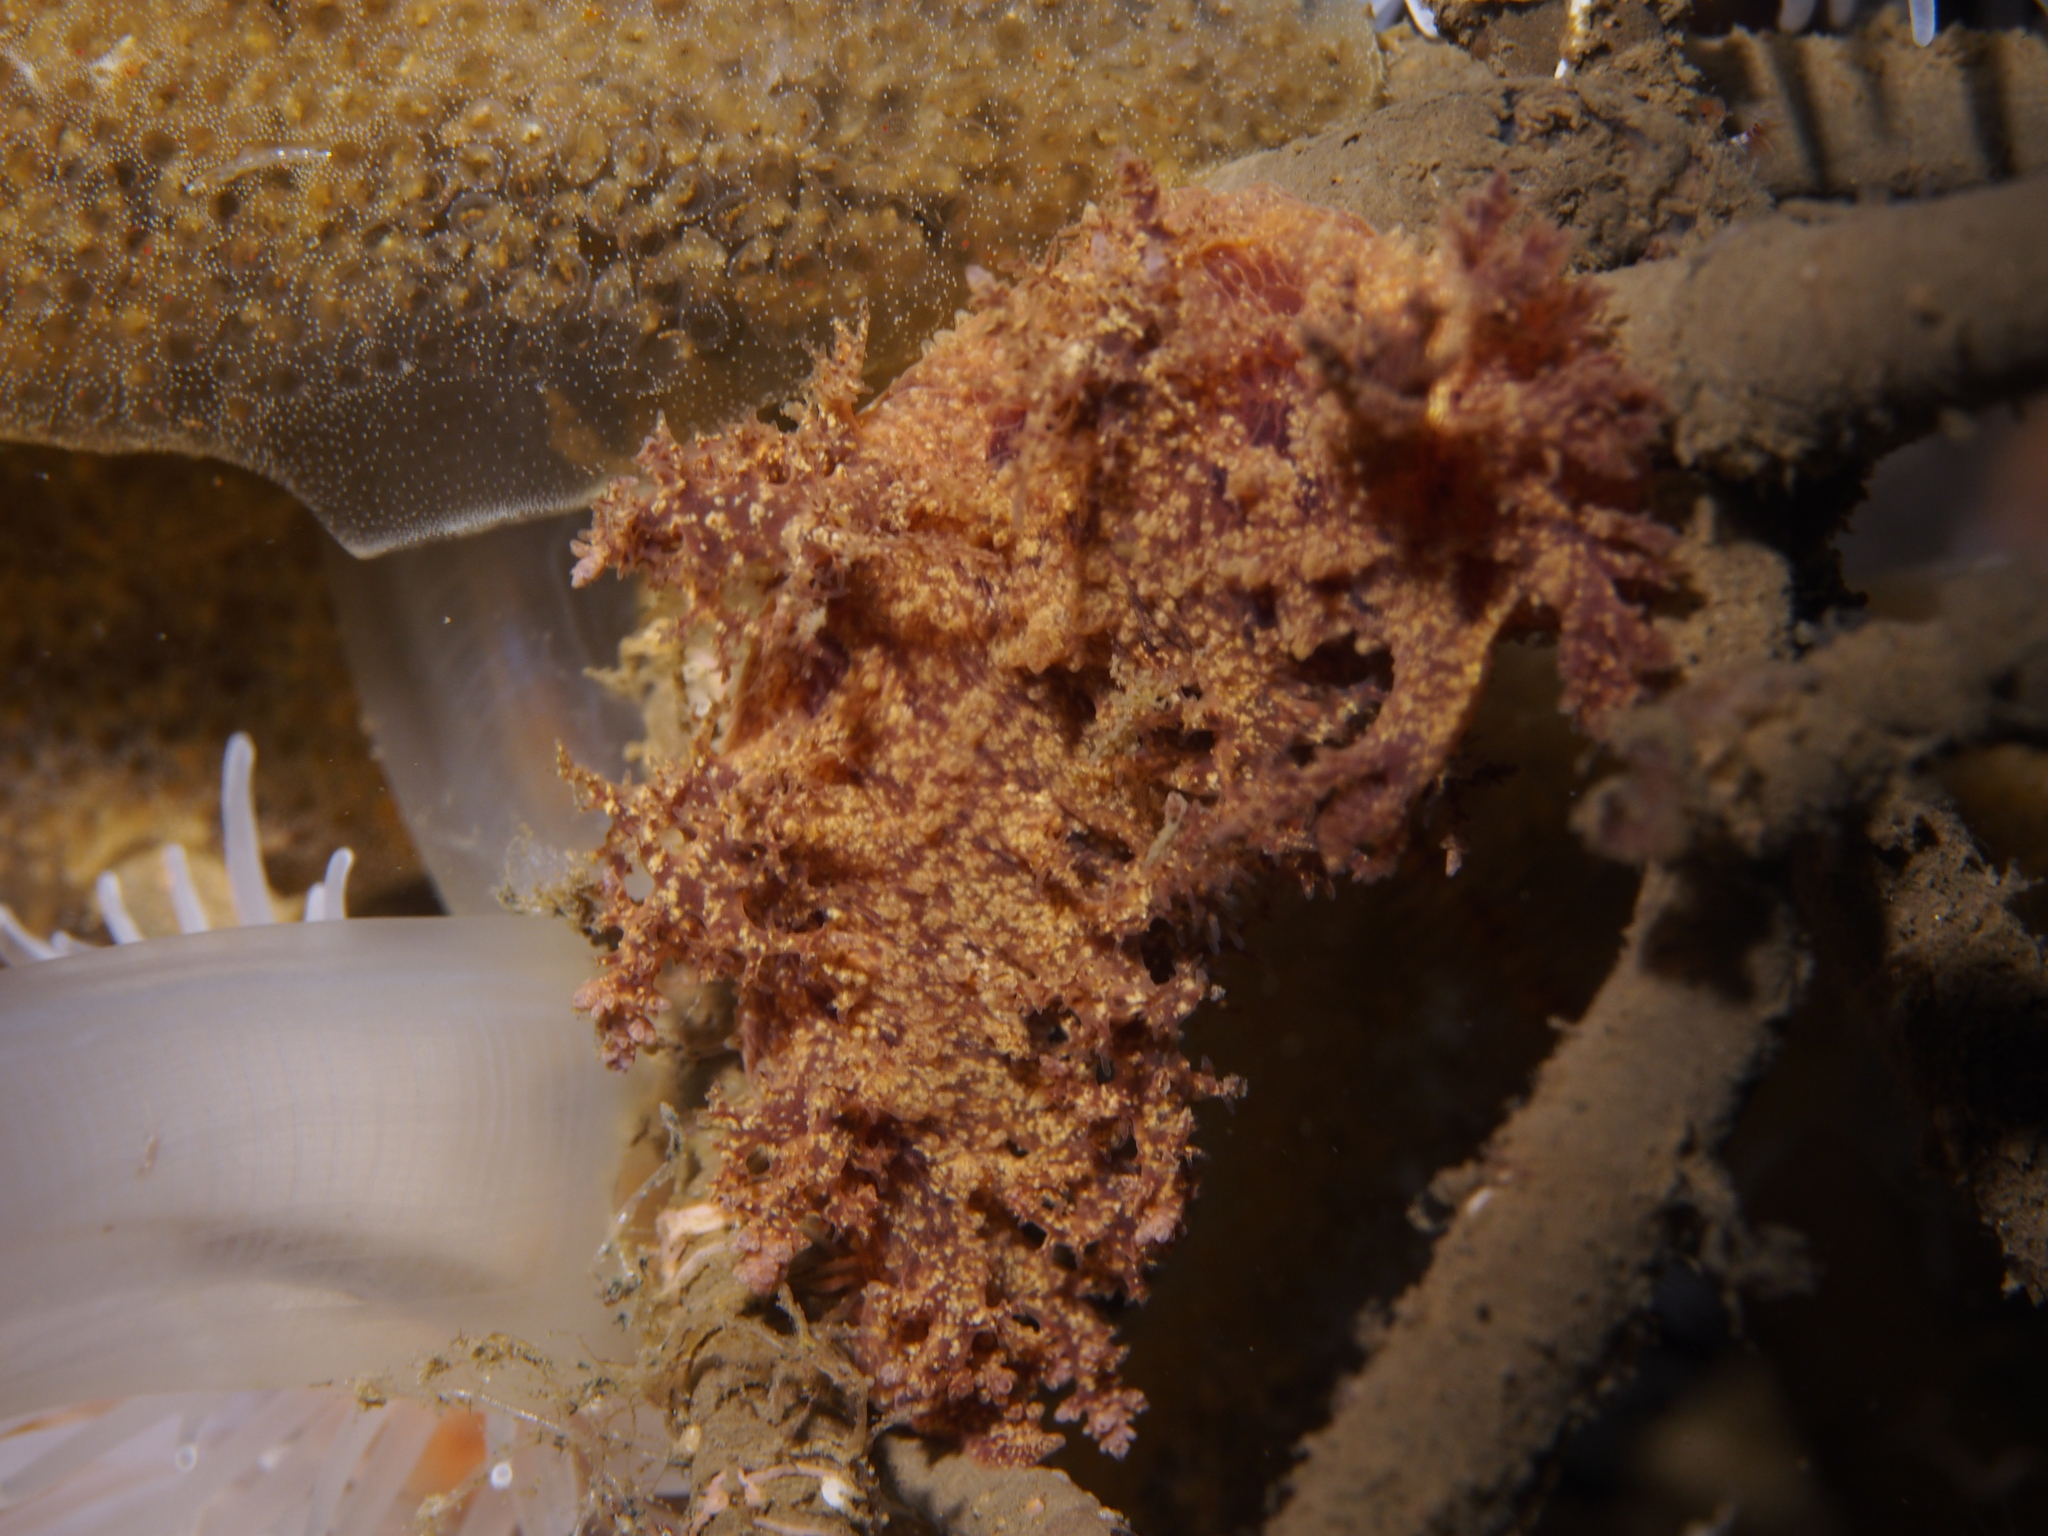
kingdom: Animalia
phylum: Mollusca
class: Gastropoda
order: Nudibranchia
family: Dendronotidae
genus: Dendronotus
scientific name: Dendronotus europaeus
